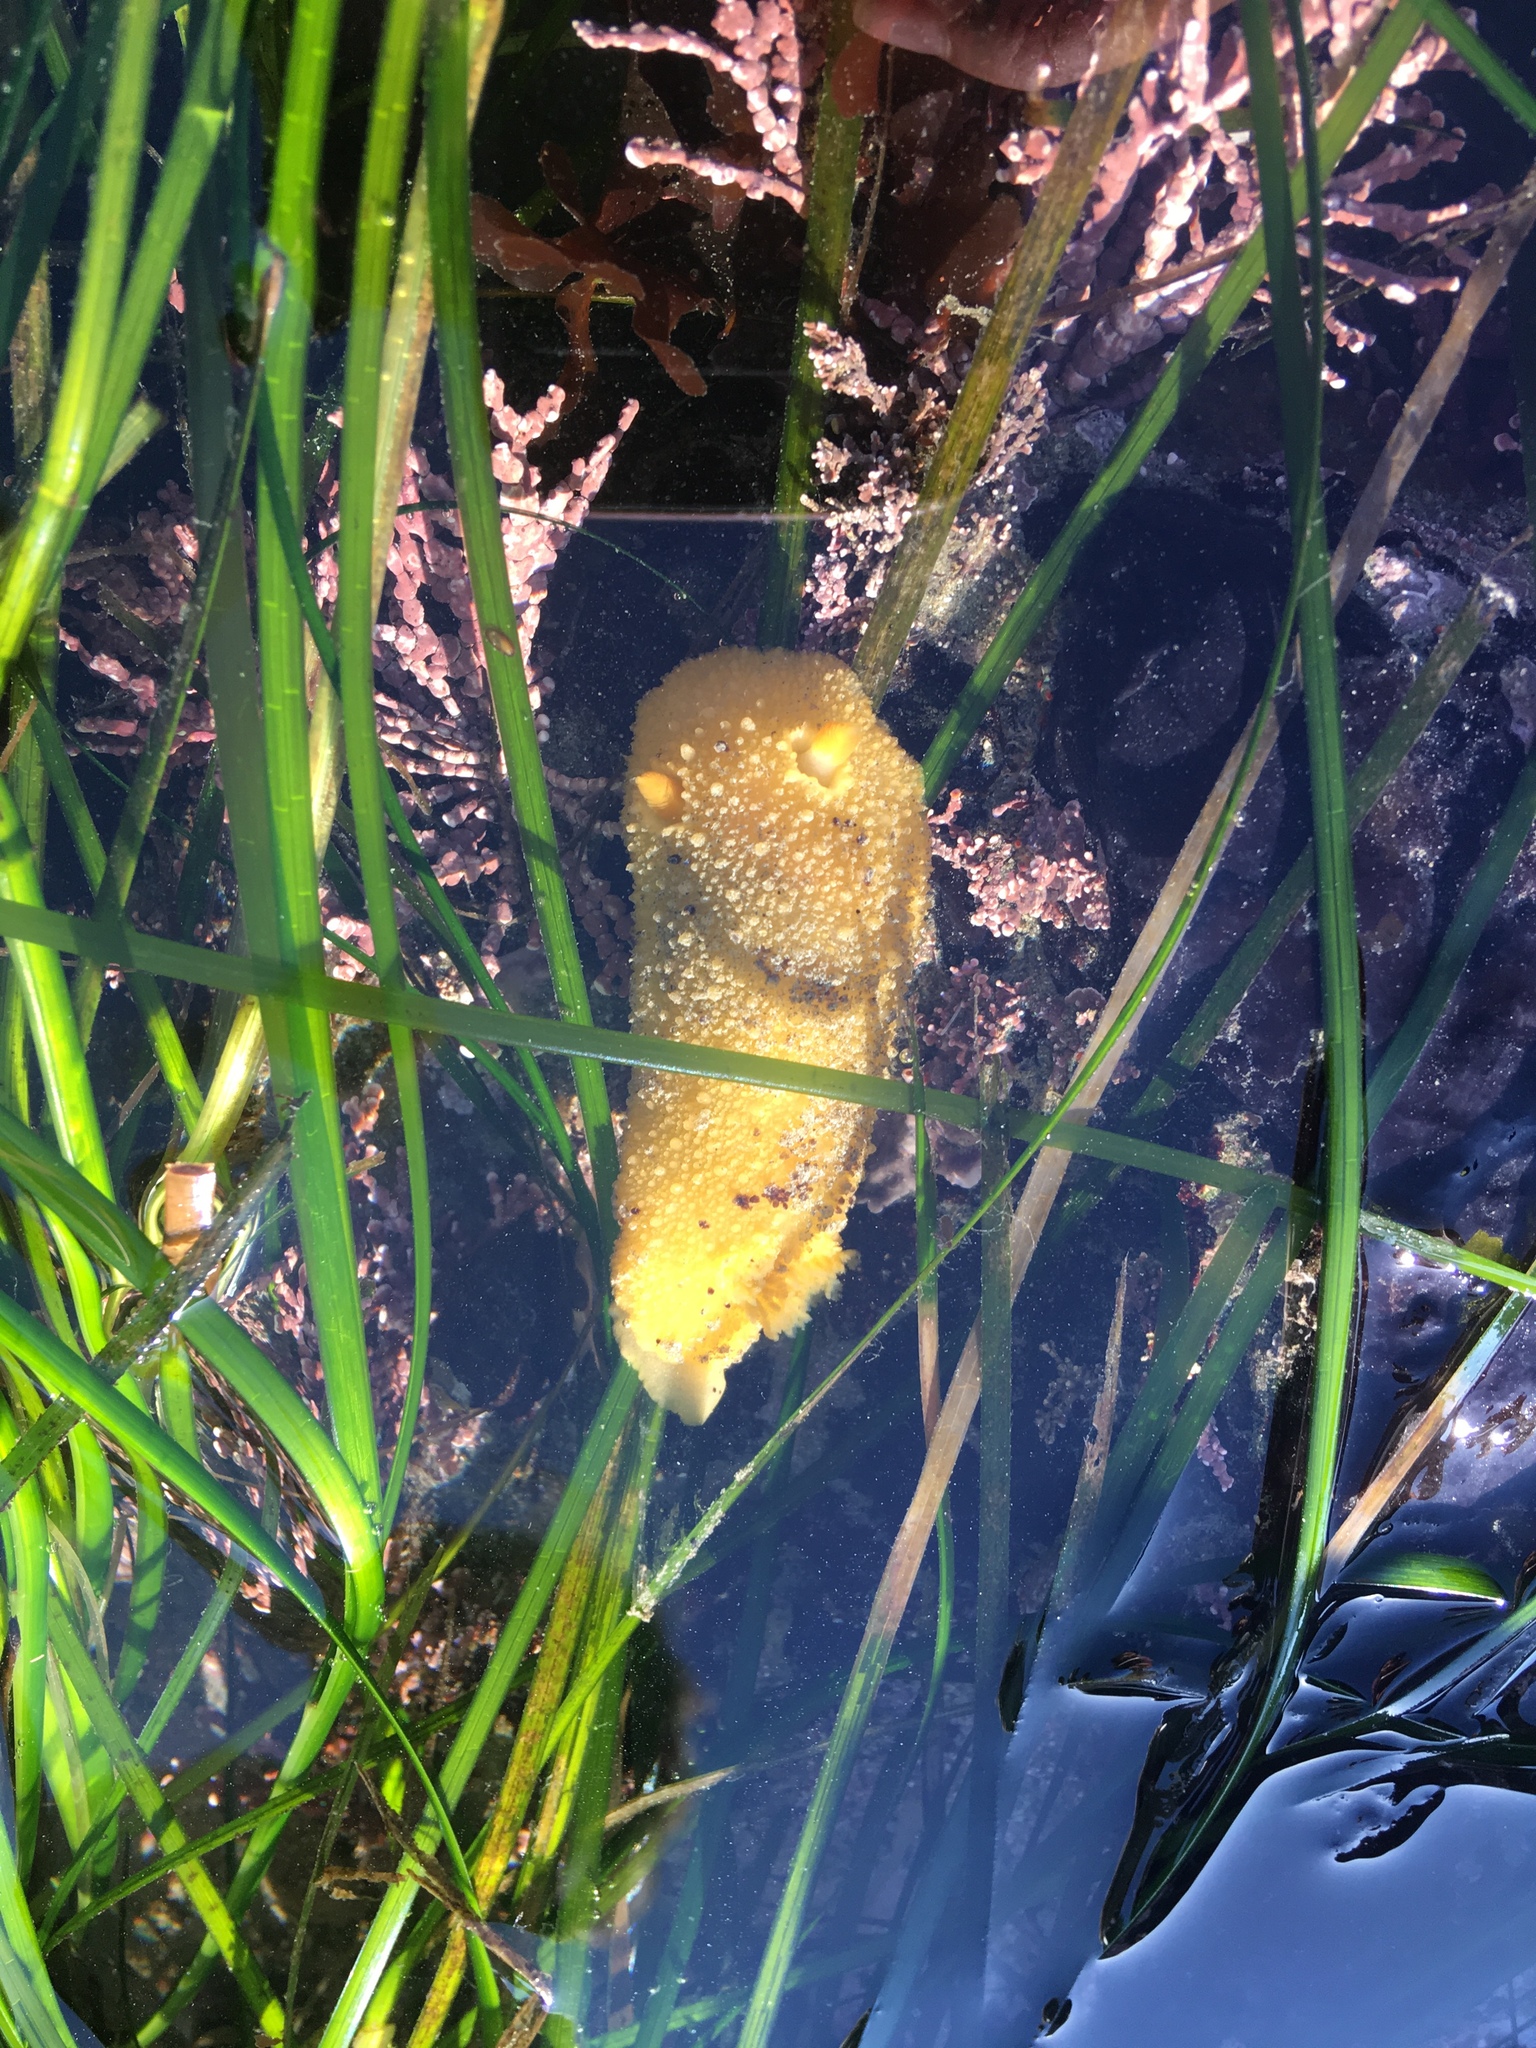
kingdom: Animalia
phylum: Mollusca
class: Gastropoda
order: Nudibranchia
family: Dorididae
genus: Doris
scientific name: Doris montereyensis
